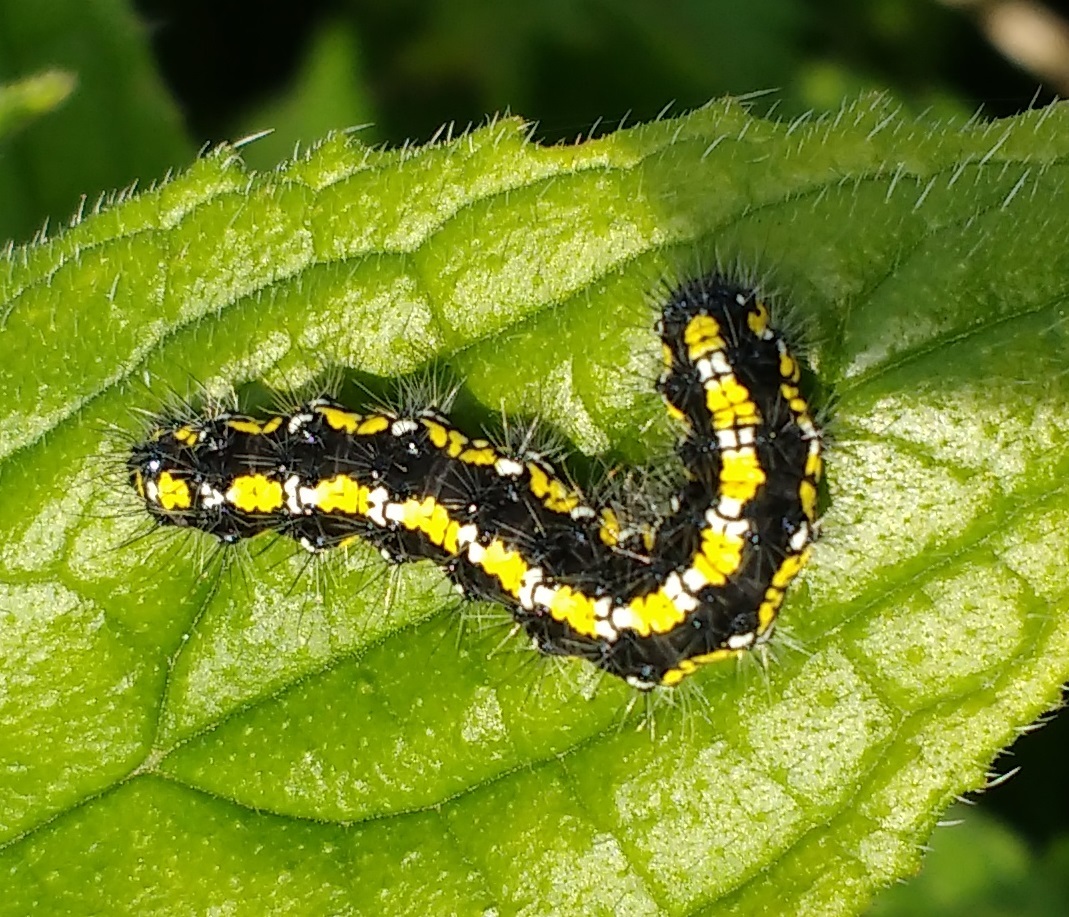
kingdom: Animalia
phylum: Arthropoda
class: Insecta
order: Lepidoptera
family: Erebidae
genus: Callimorpha
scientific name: Callimorpha dominula
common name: Scarlet tiger
